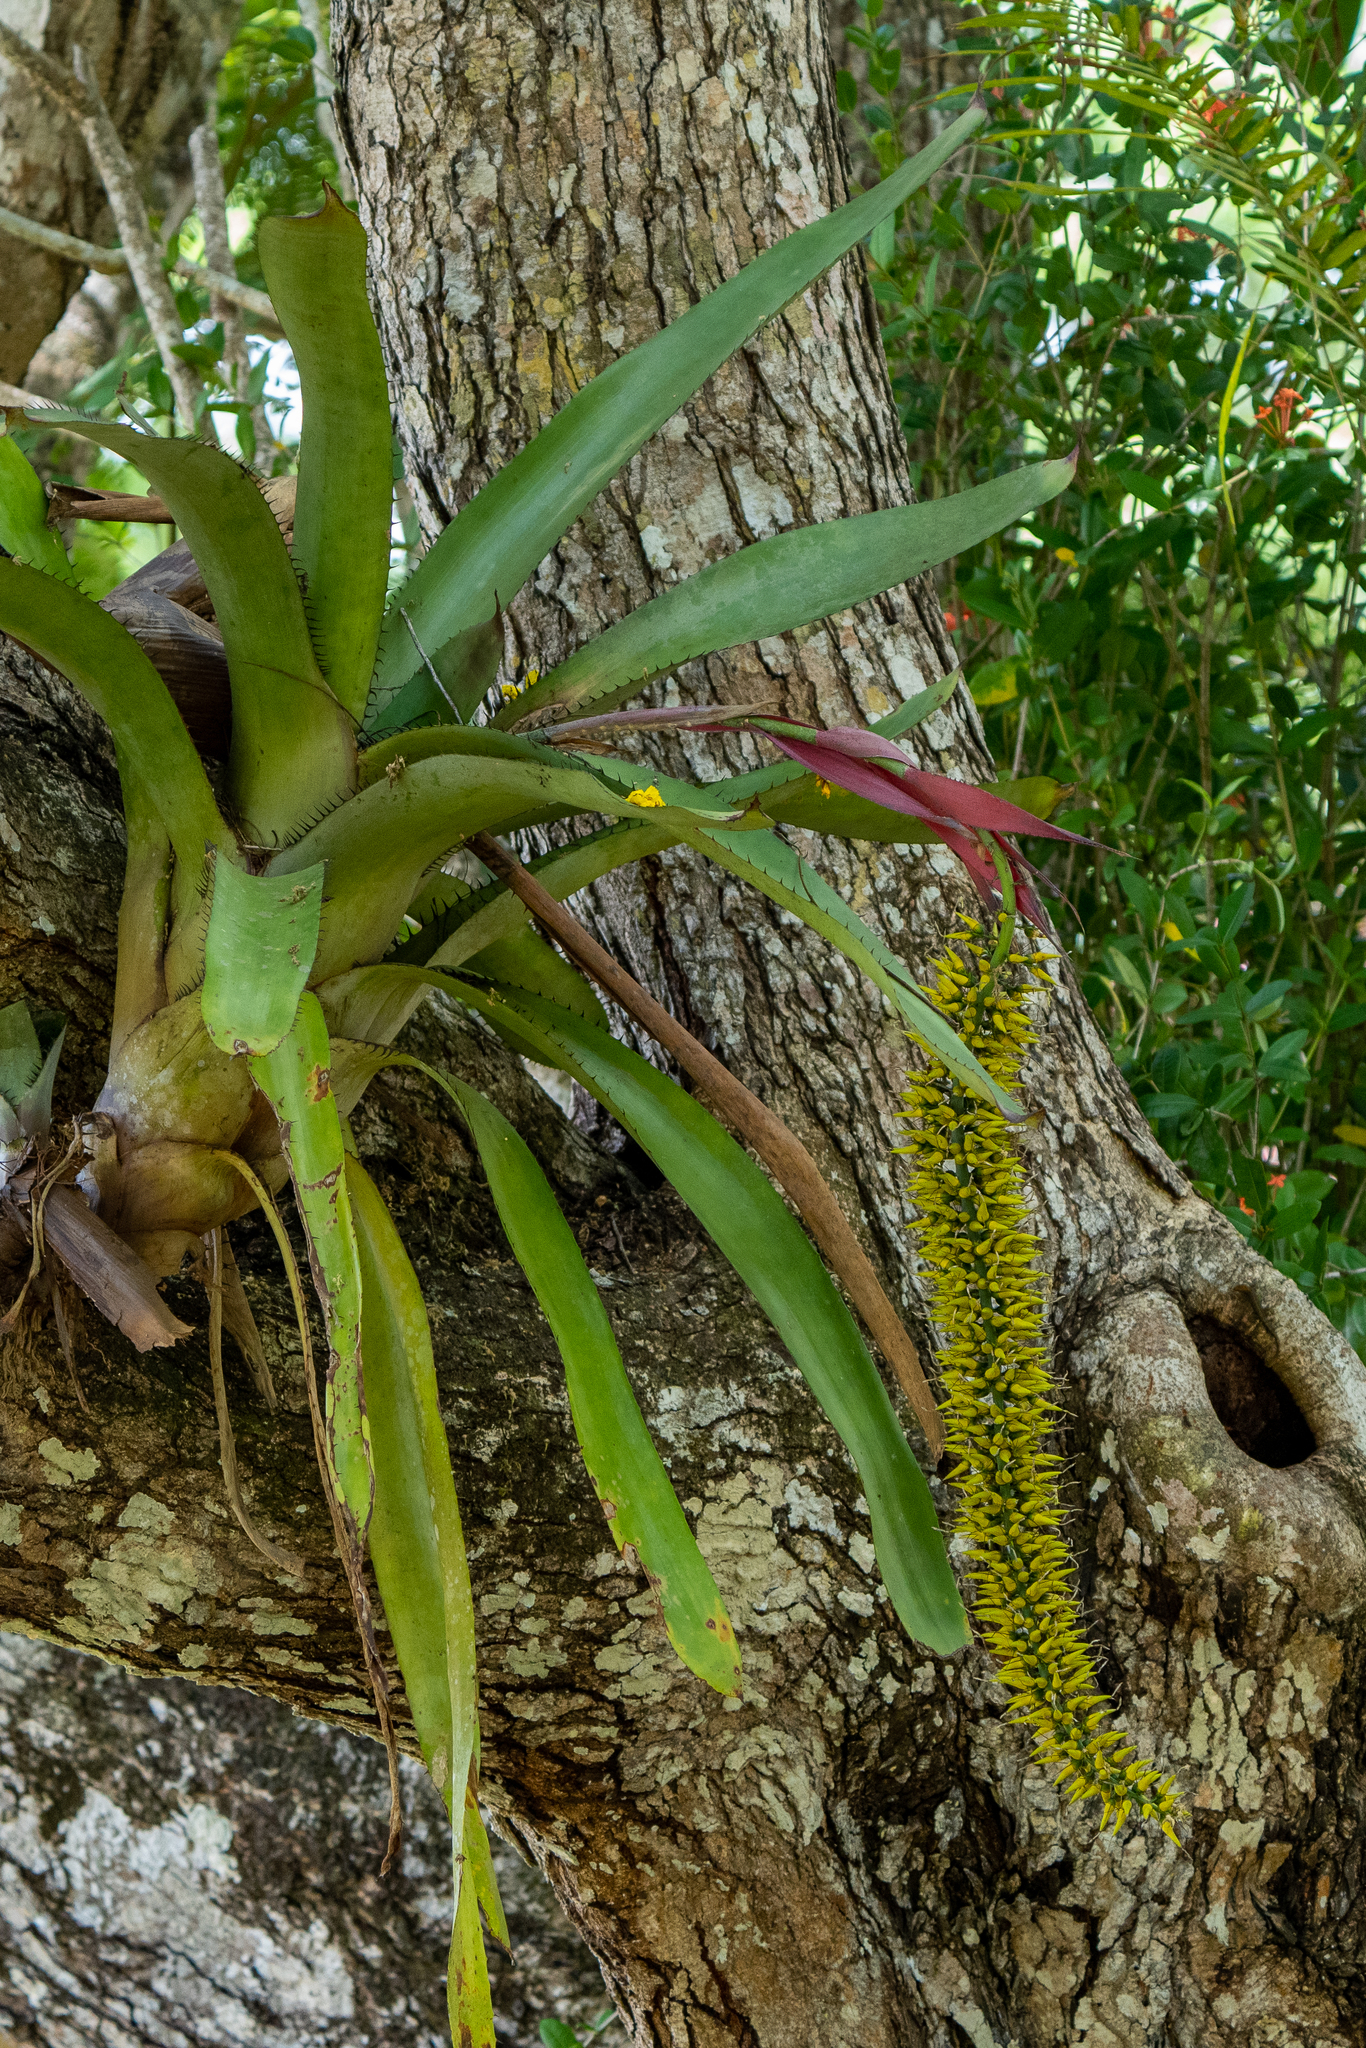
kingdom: Plantae
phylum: Tracheophyta
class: Liliopsida
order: Poales
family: Bromeliaceae
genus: Aechmea
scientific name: Aechmea setigera
